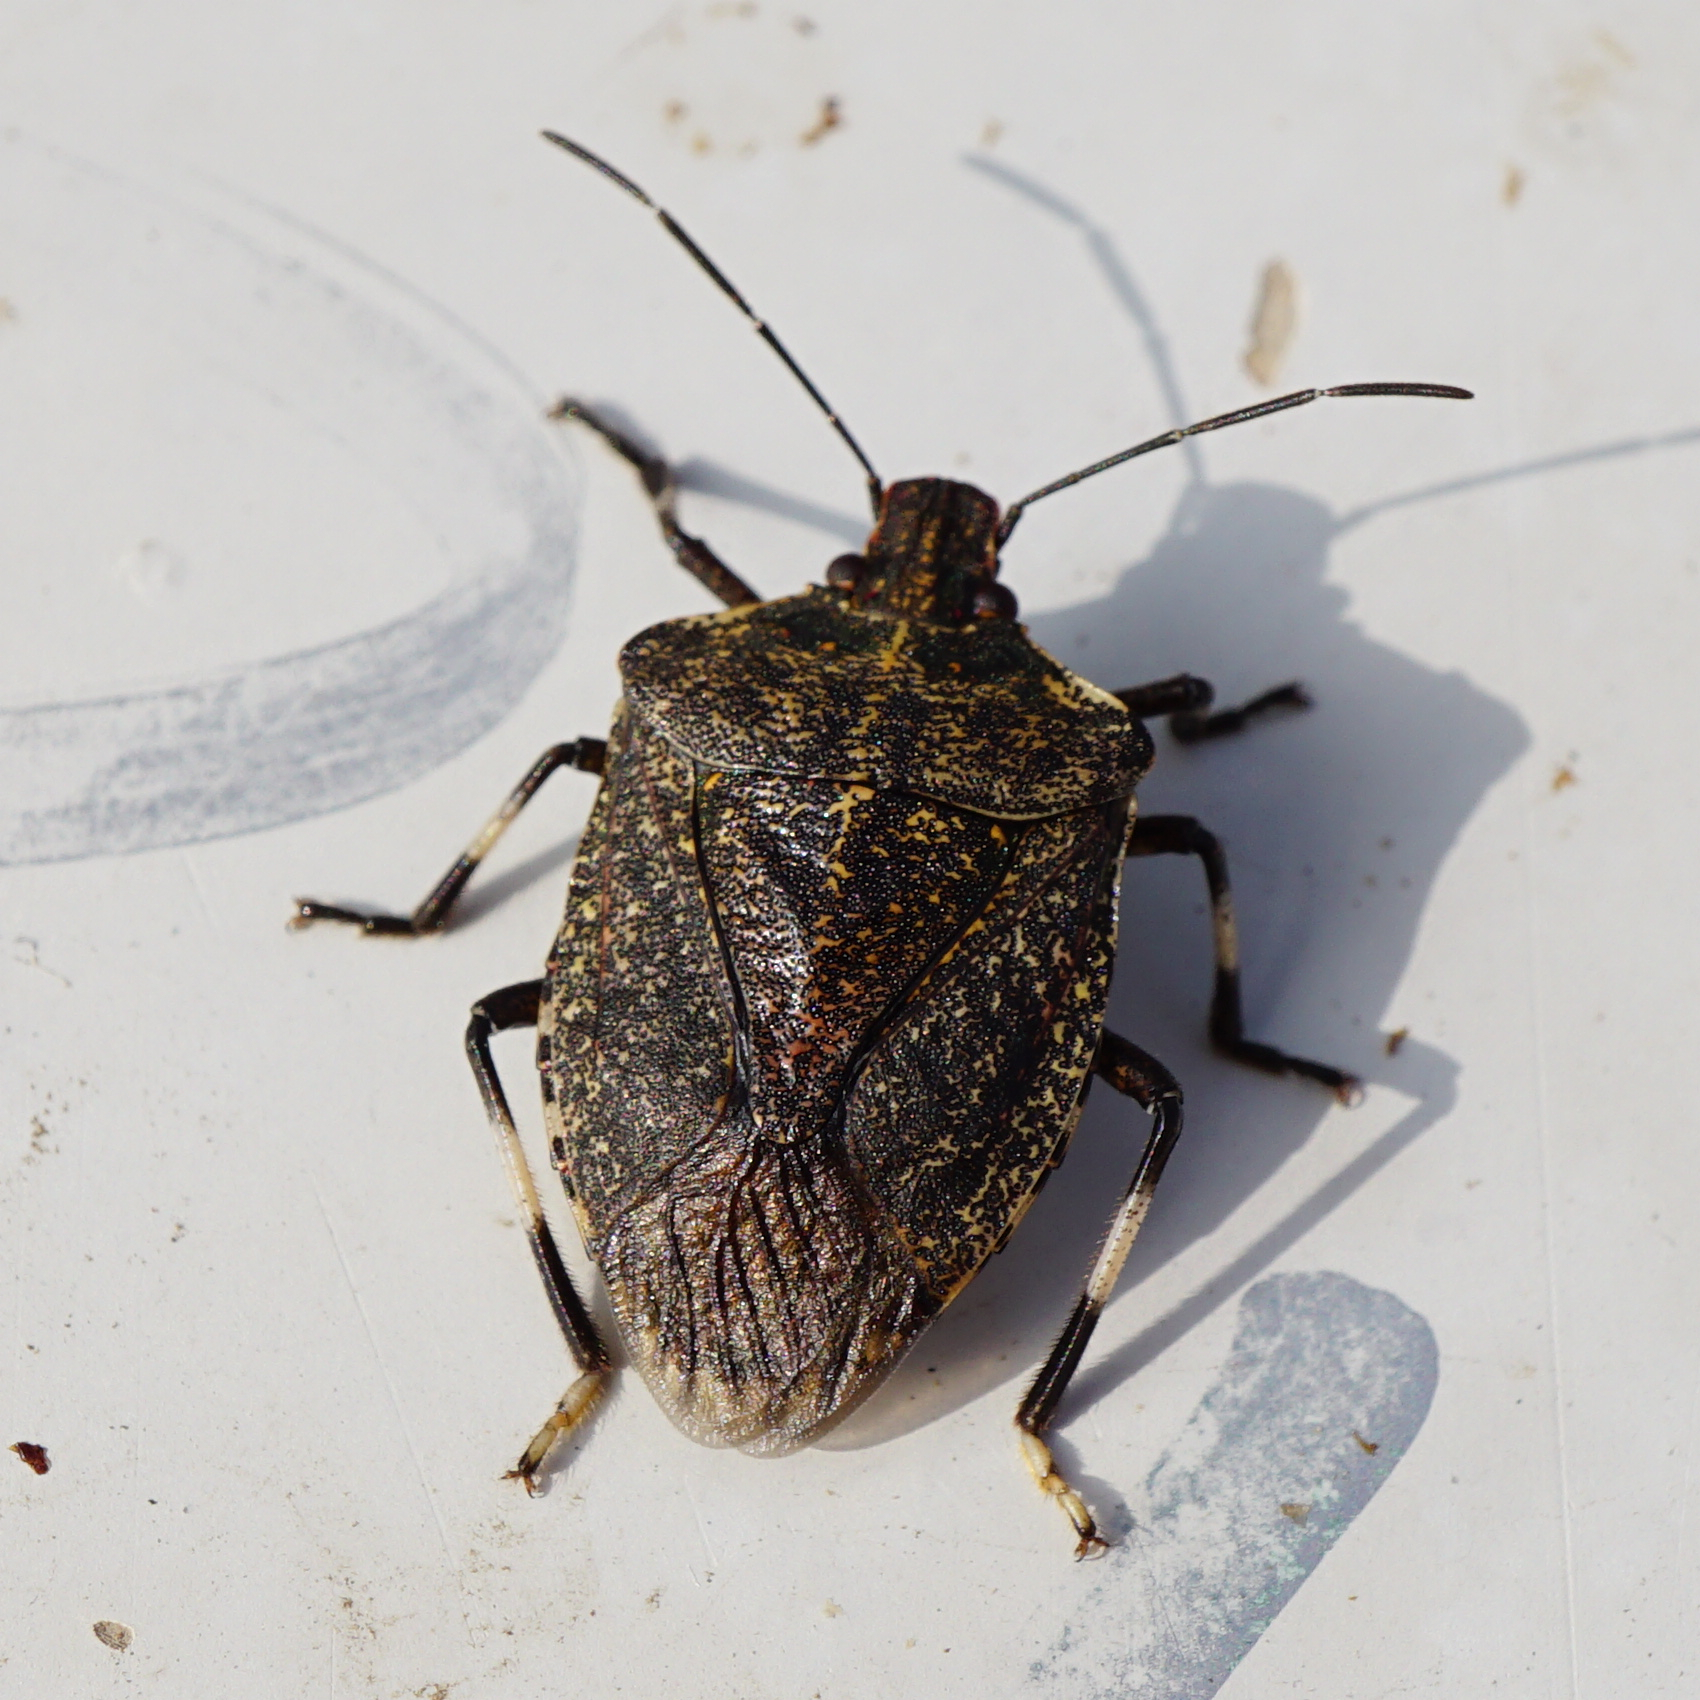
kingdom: Animalia
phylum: Arthropoda
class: Insecta
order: Hemiptera
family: Pentatomidae
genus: Halyomorpha
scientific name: Halyomorpha halys
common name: Brown marmorated stink bug
